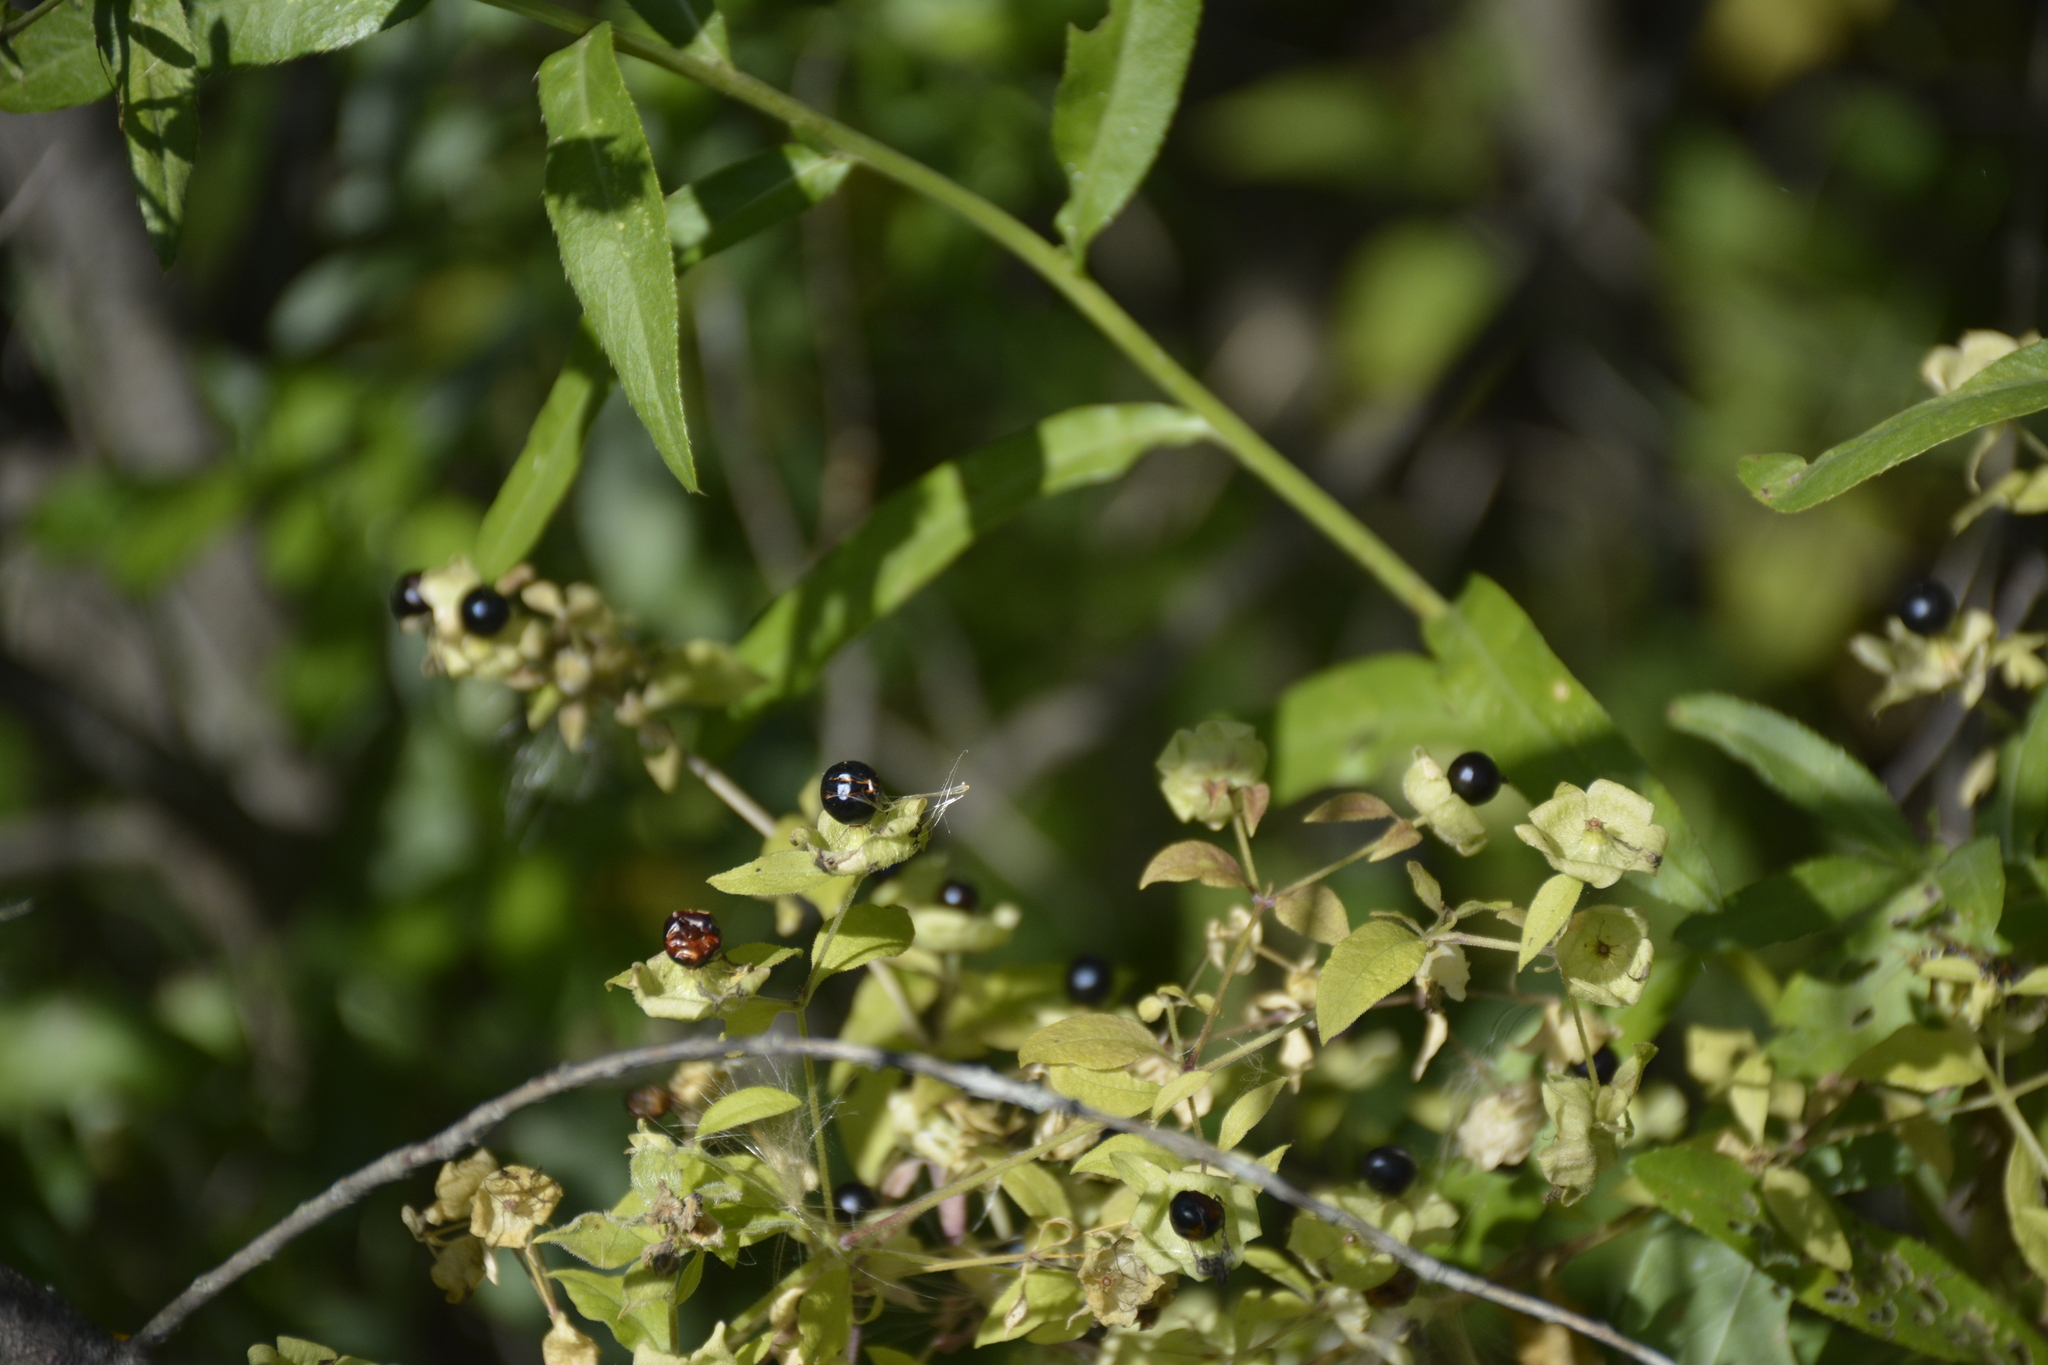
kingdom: Plantae
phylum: Tracheophyta
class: Magnoliopsida
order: Caryophyllales
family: Caryophyllaceae
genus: Silene
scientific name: Silene baccifera
